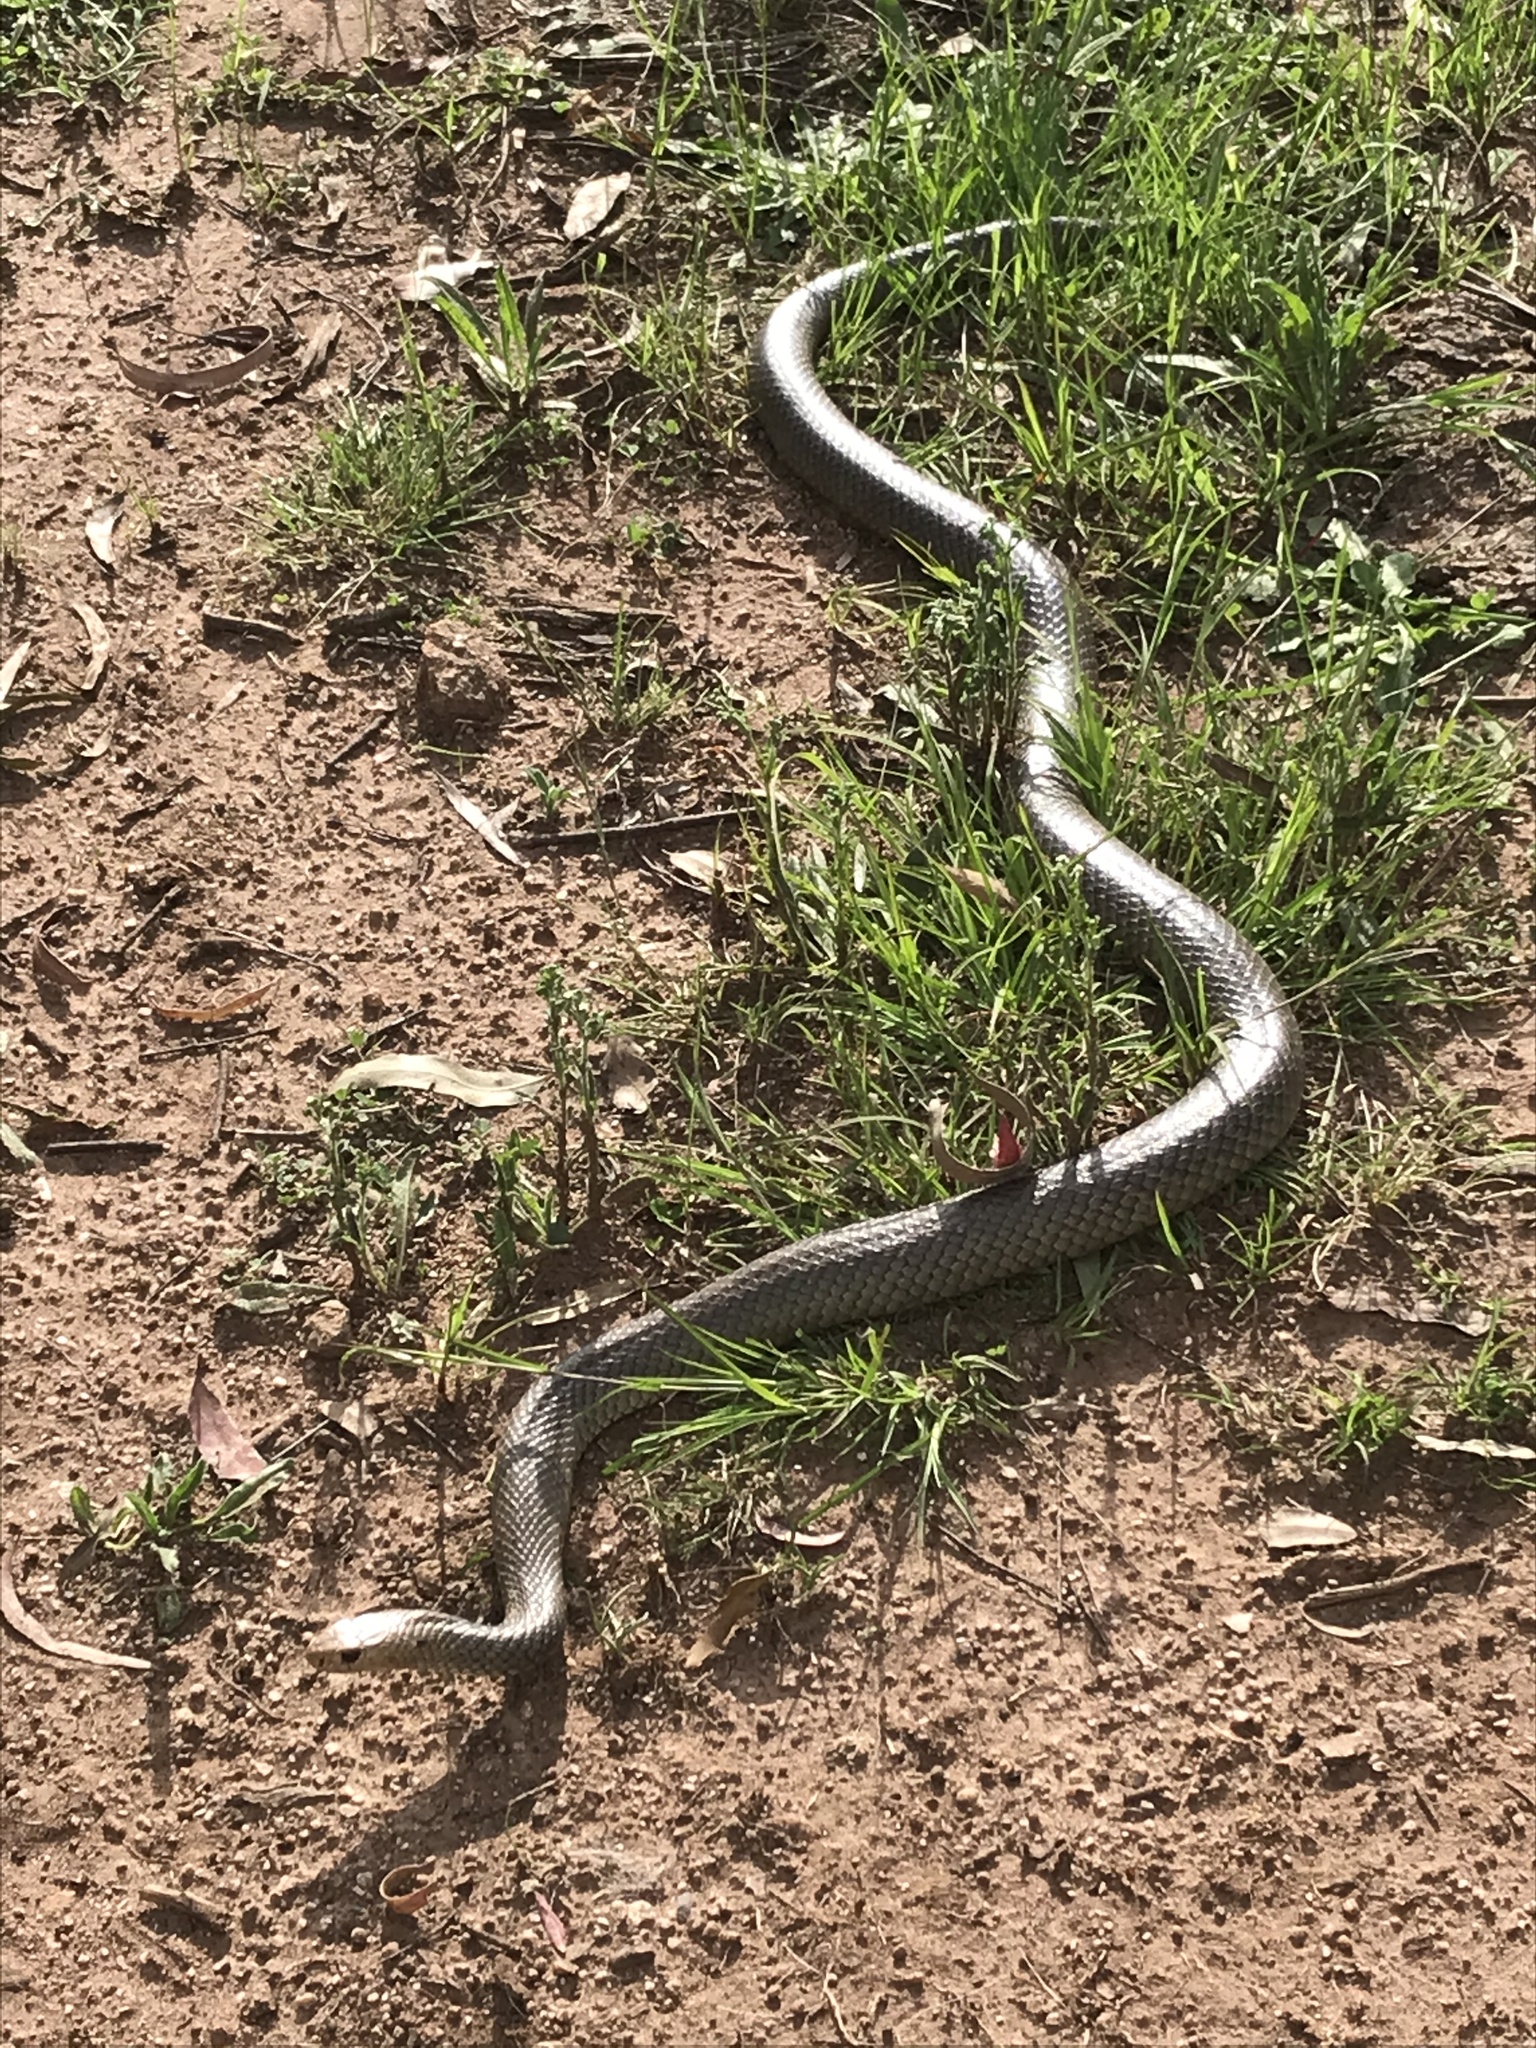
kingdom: Animalia
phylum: Chordata
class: Squamata
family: Elapidae
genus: Pseudonaja
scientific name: Pseudonaja textilis
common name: Eastern brown snake
